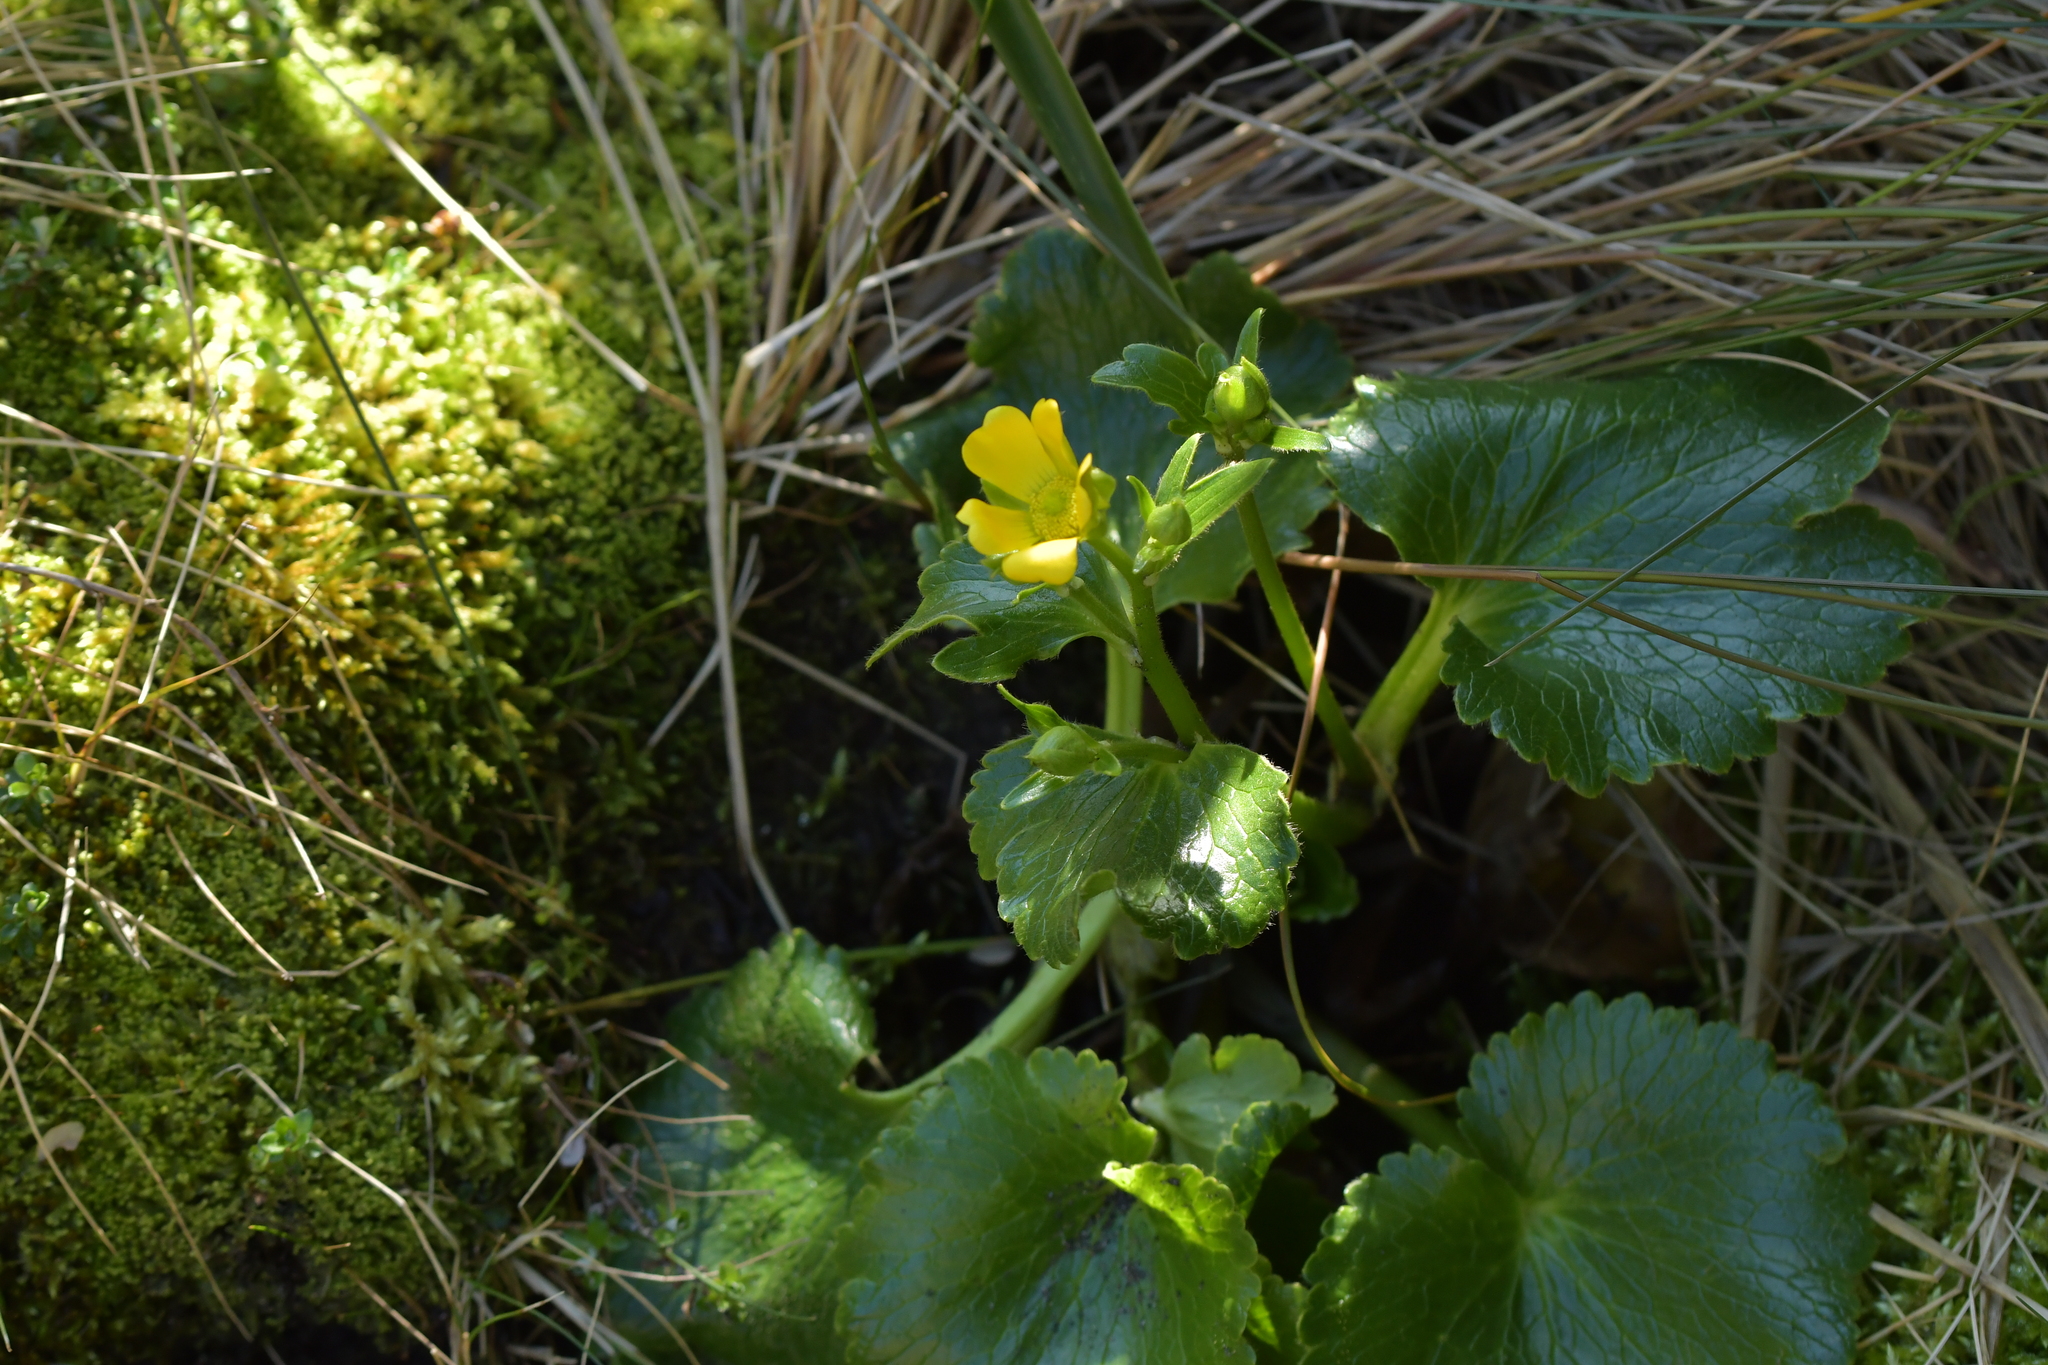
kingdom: Plantae
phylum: Tracheophyta
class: Magnoliopsida
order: Ranunculales
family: Ranunculaceae
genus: Ranunculus
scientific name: Ranunculus insignis
